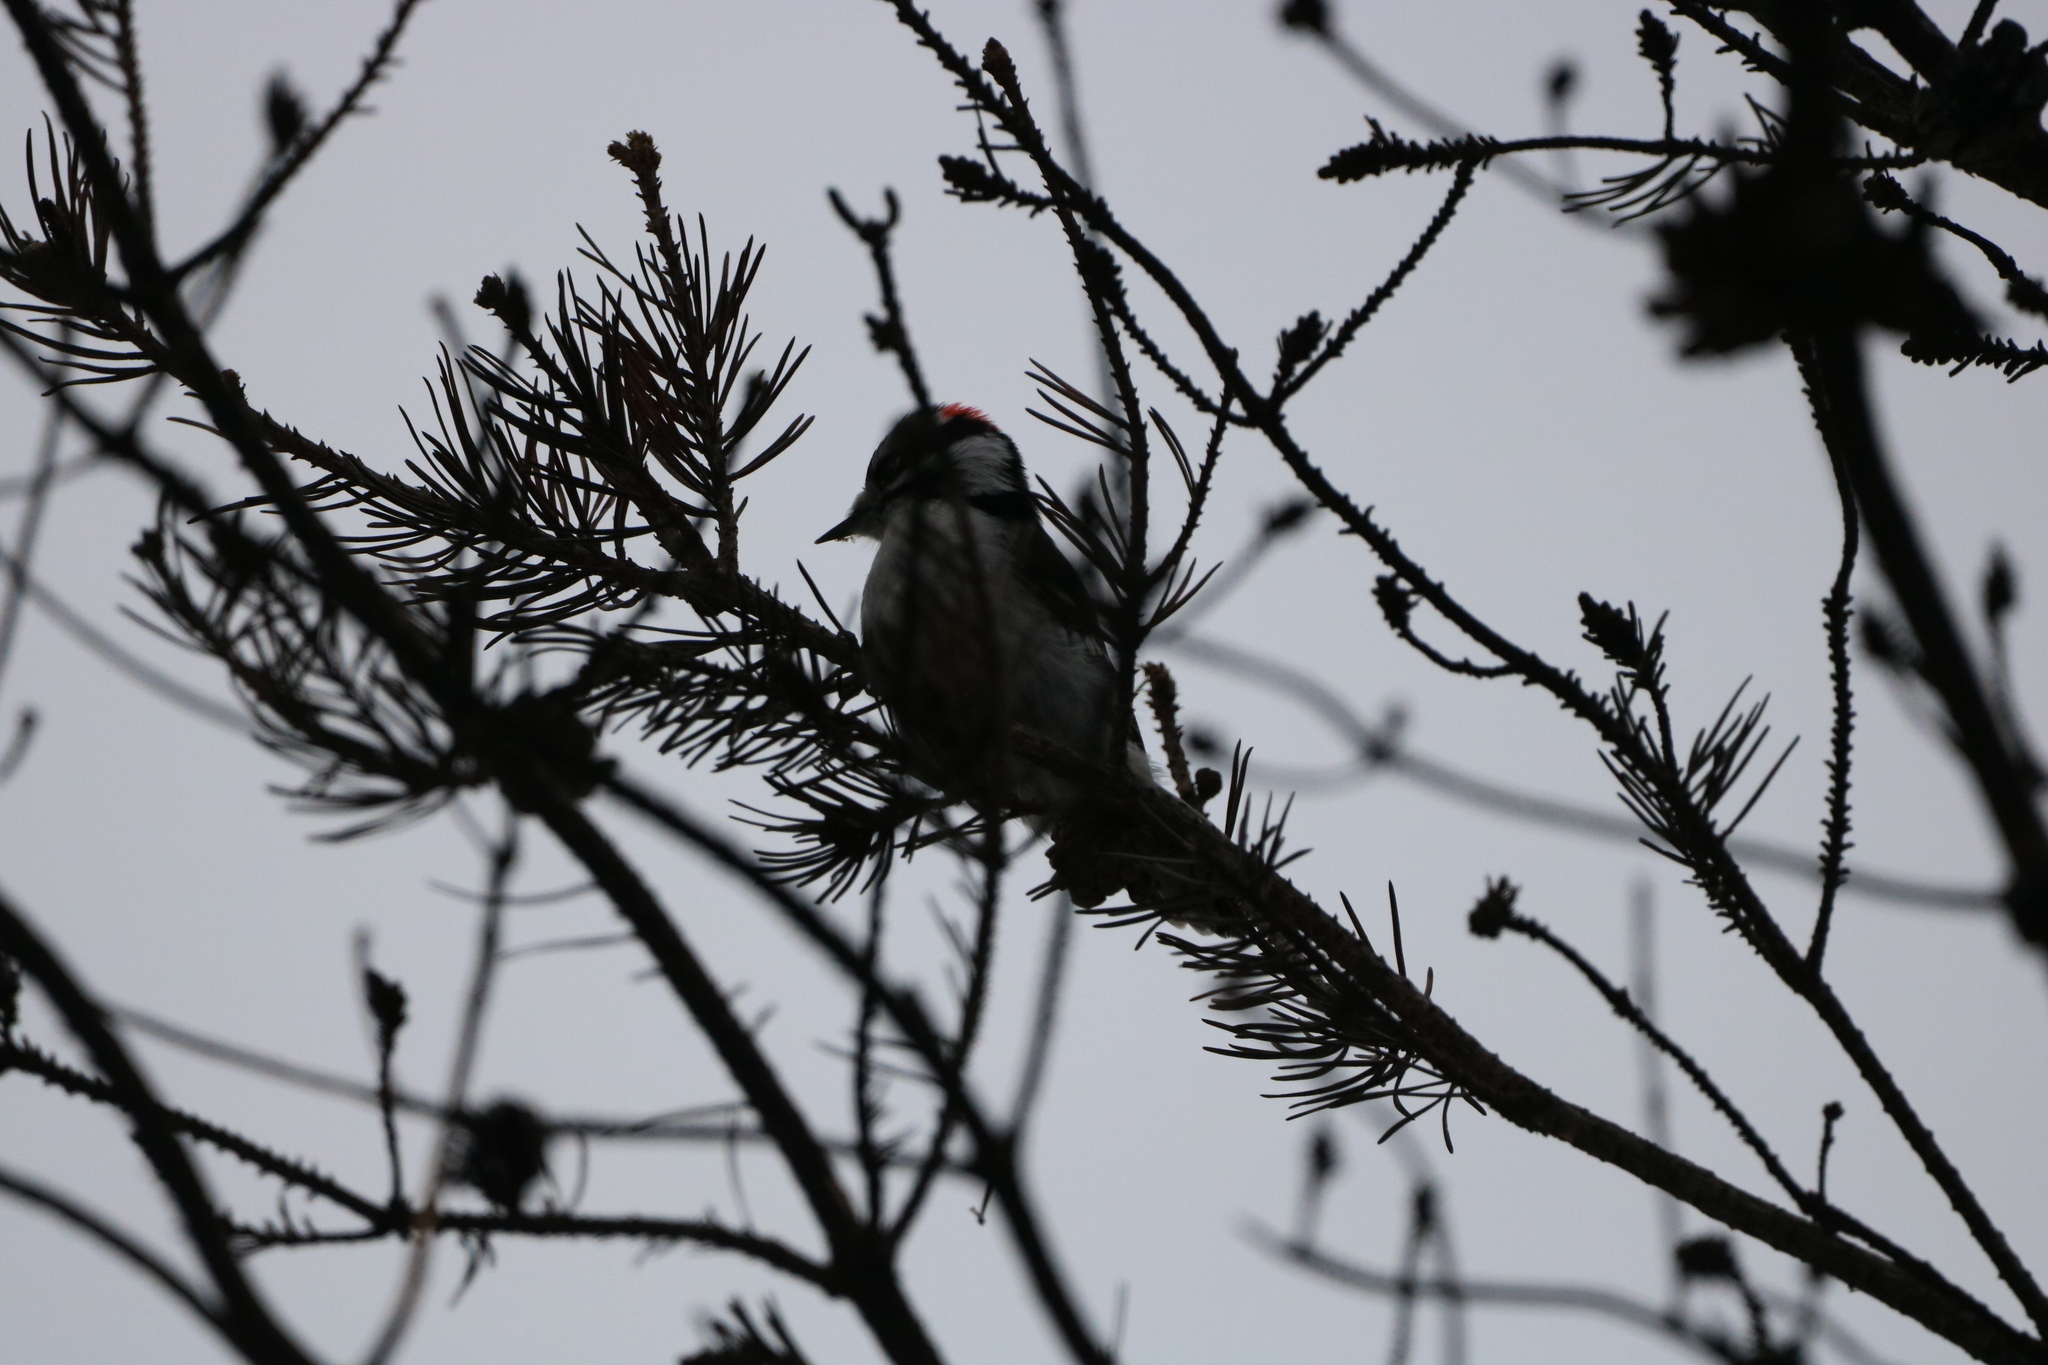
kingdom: Animalia
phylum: Chordata
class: Aves
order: Piciformes
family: Picidae
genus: Dryobates
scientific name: Dryobates pubescens
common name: Downy woodpecker
